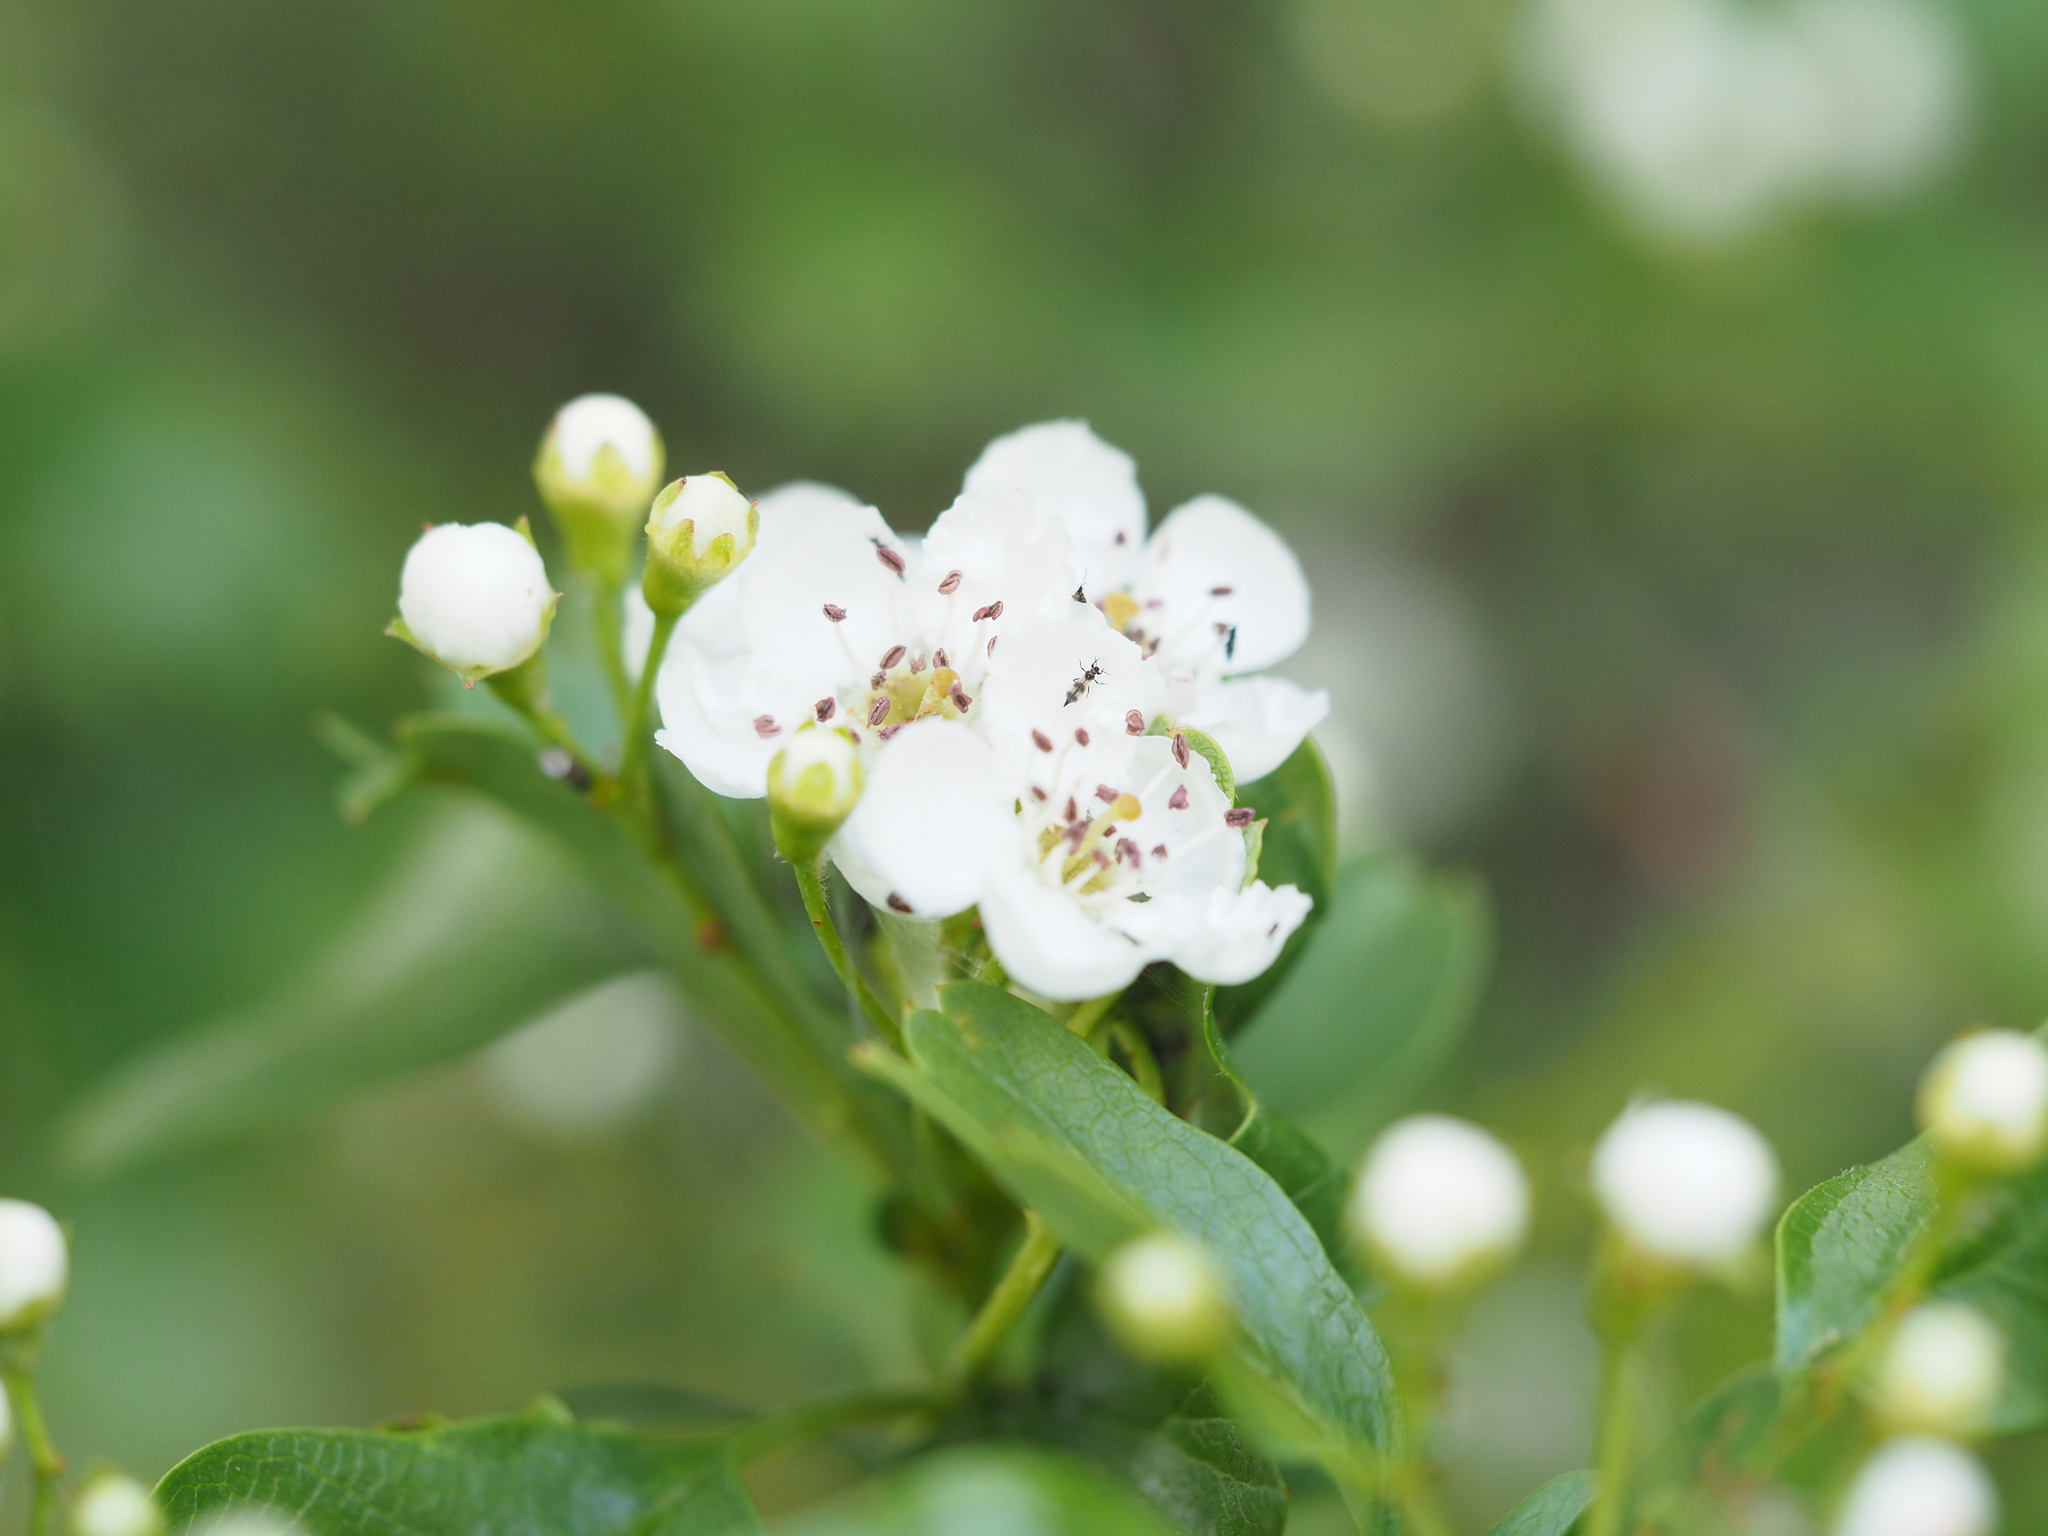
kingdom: Plantae
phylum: Tracheophyta
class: Magnoliopsida
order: Rosales
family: Rosaceae
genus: Crataegus
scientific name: Crataegus monogyna
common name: Hawthorn
